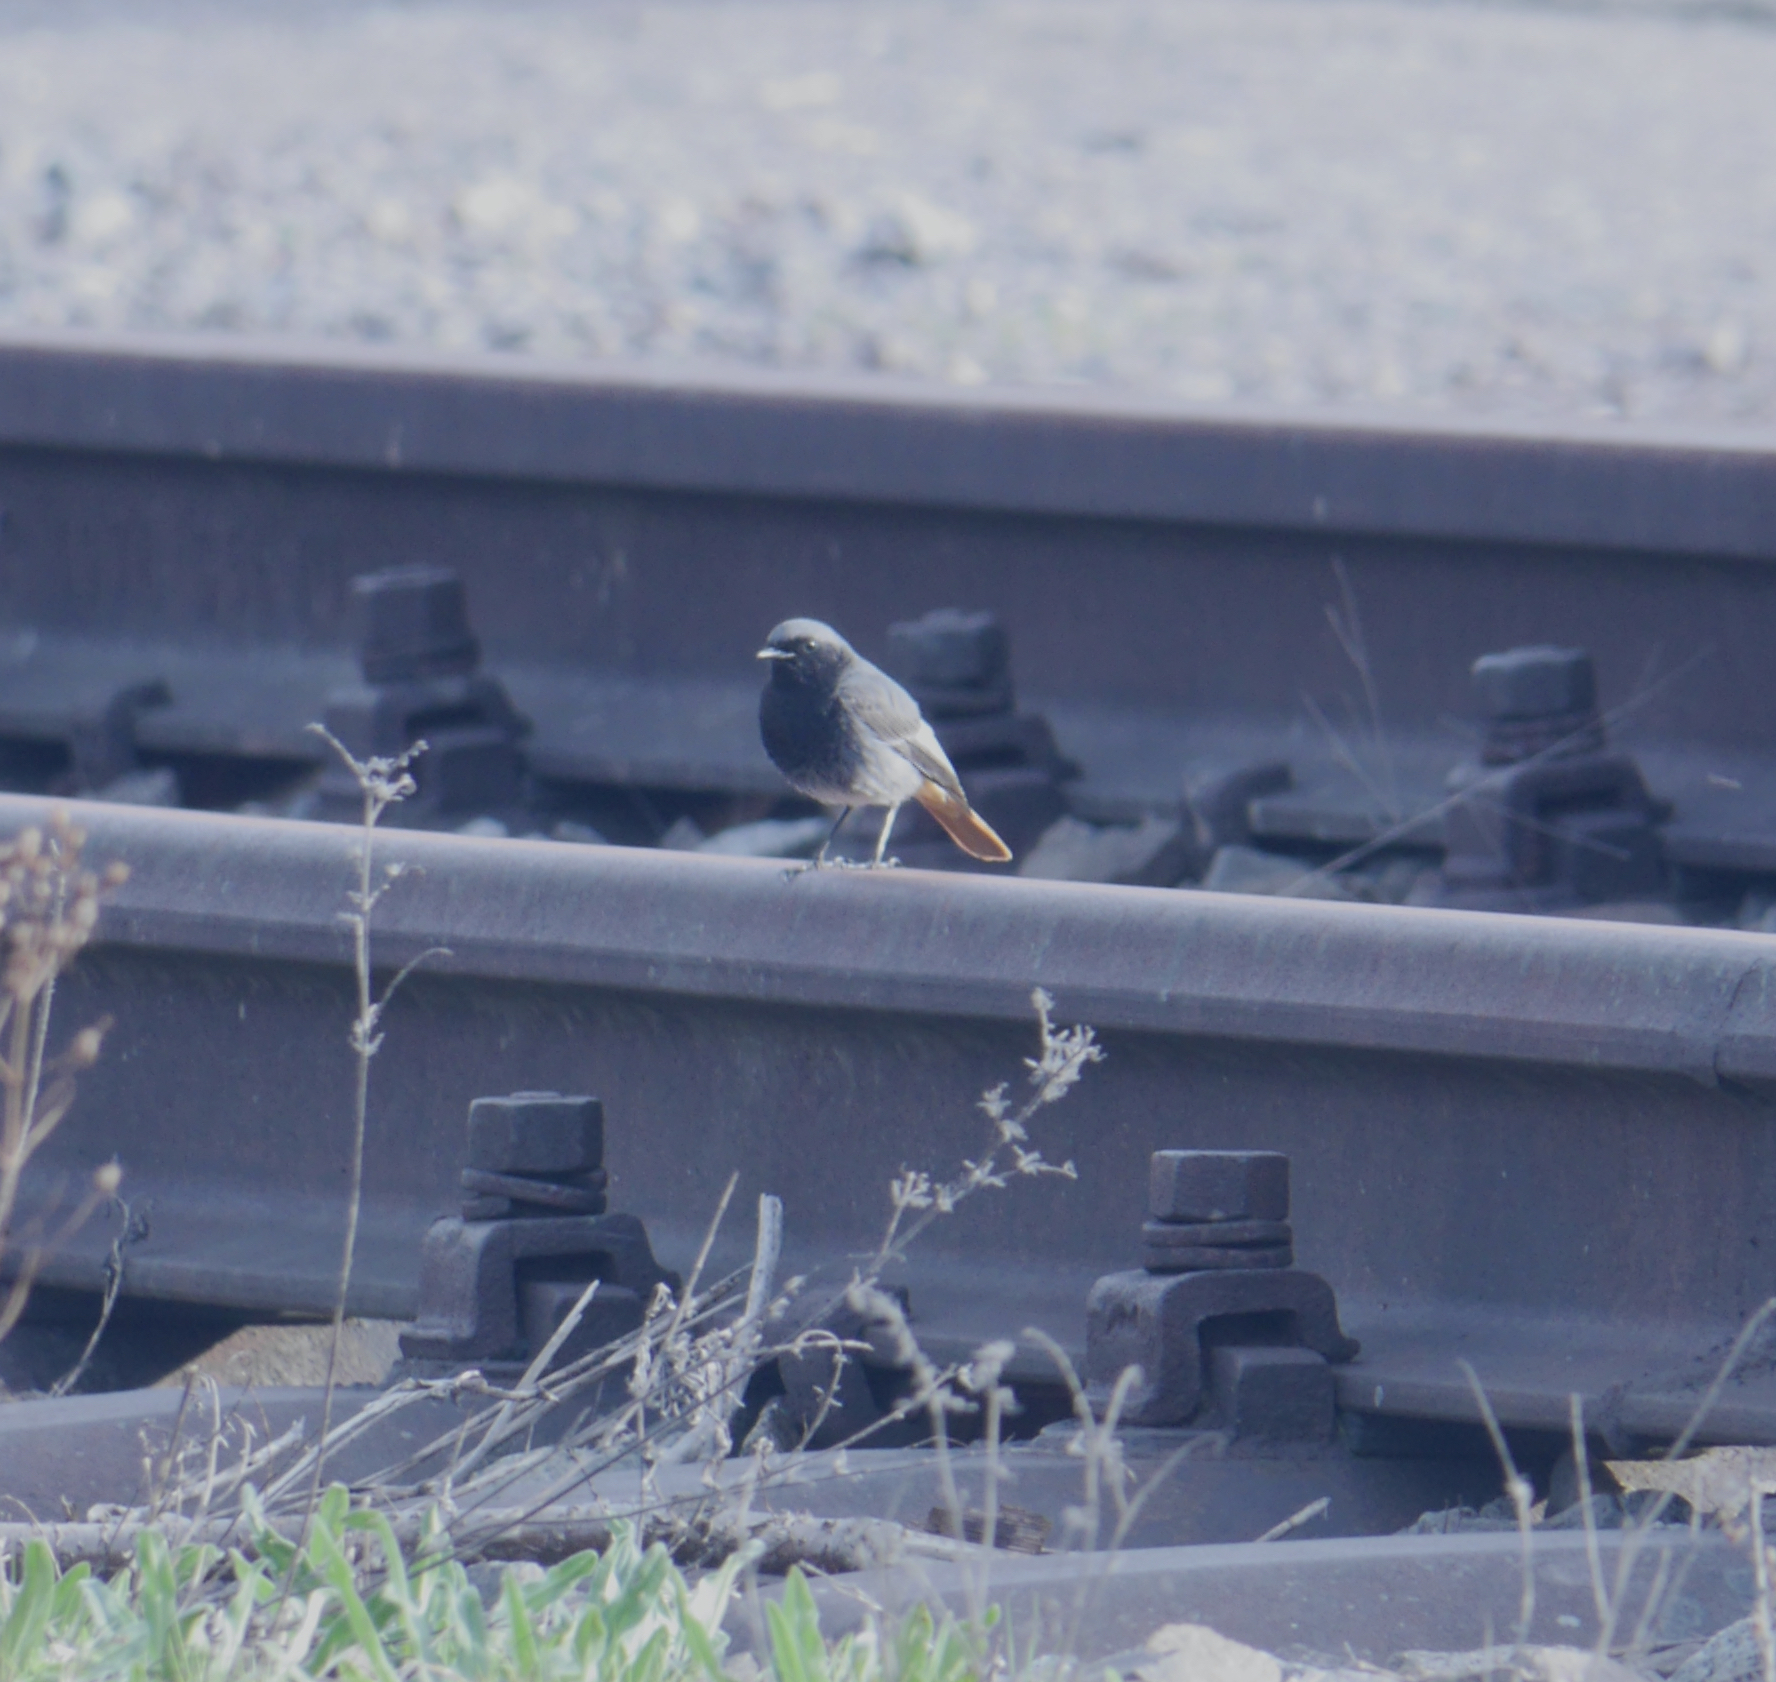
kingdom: Animalia
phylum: Chordata
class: Aves
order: Passeriformes
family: Muscicapidae
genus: Phoenicurus
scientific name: Phoenicurus ochruros
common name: Black redstart
